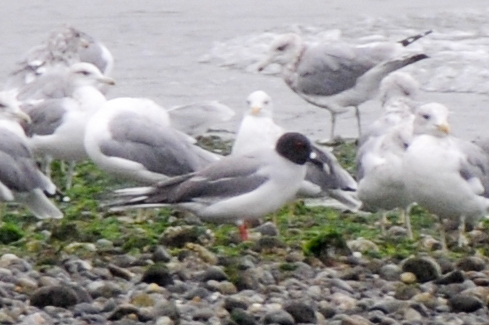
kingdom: Animalia
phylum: Chordata
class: Aves
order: Charadriiformes
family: Laridae
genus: Creagrus
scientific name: Creagrus furcatus
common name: Swallow-tailed gull
